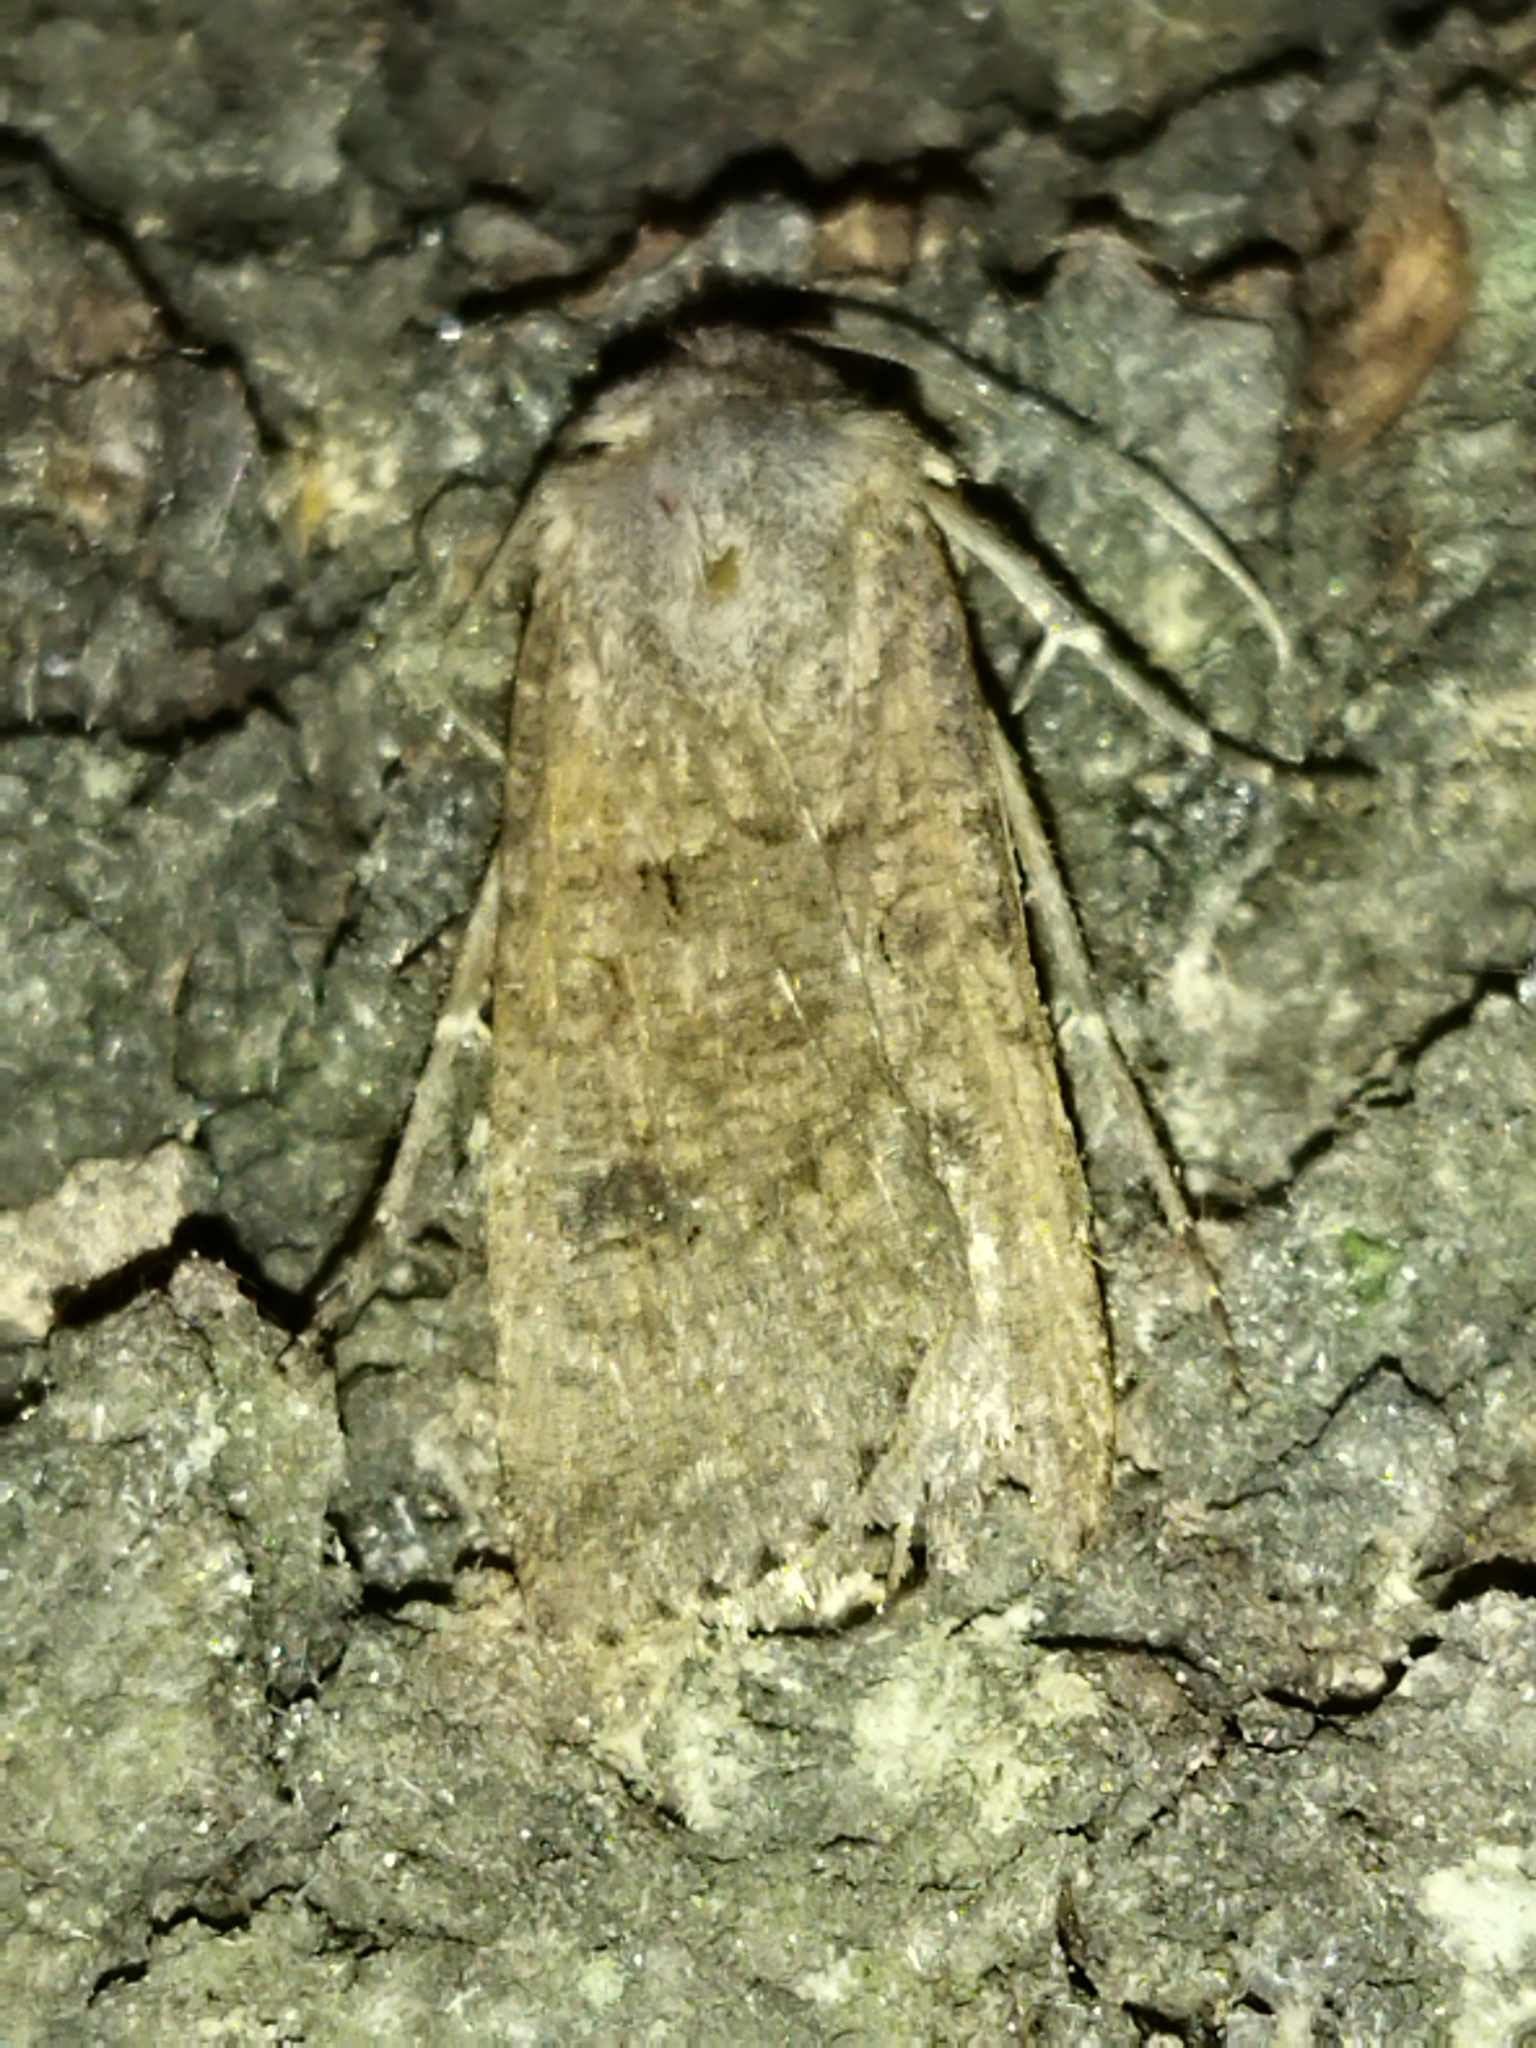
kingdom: Animalia
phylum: Arthropoda
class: Insecta
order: Lepidoptera
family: Noctuidae
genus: Agrotis
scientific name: Agrotis segetum
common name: Turnip moth
